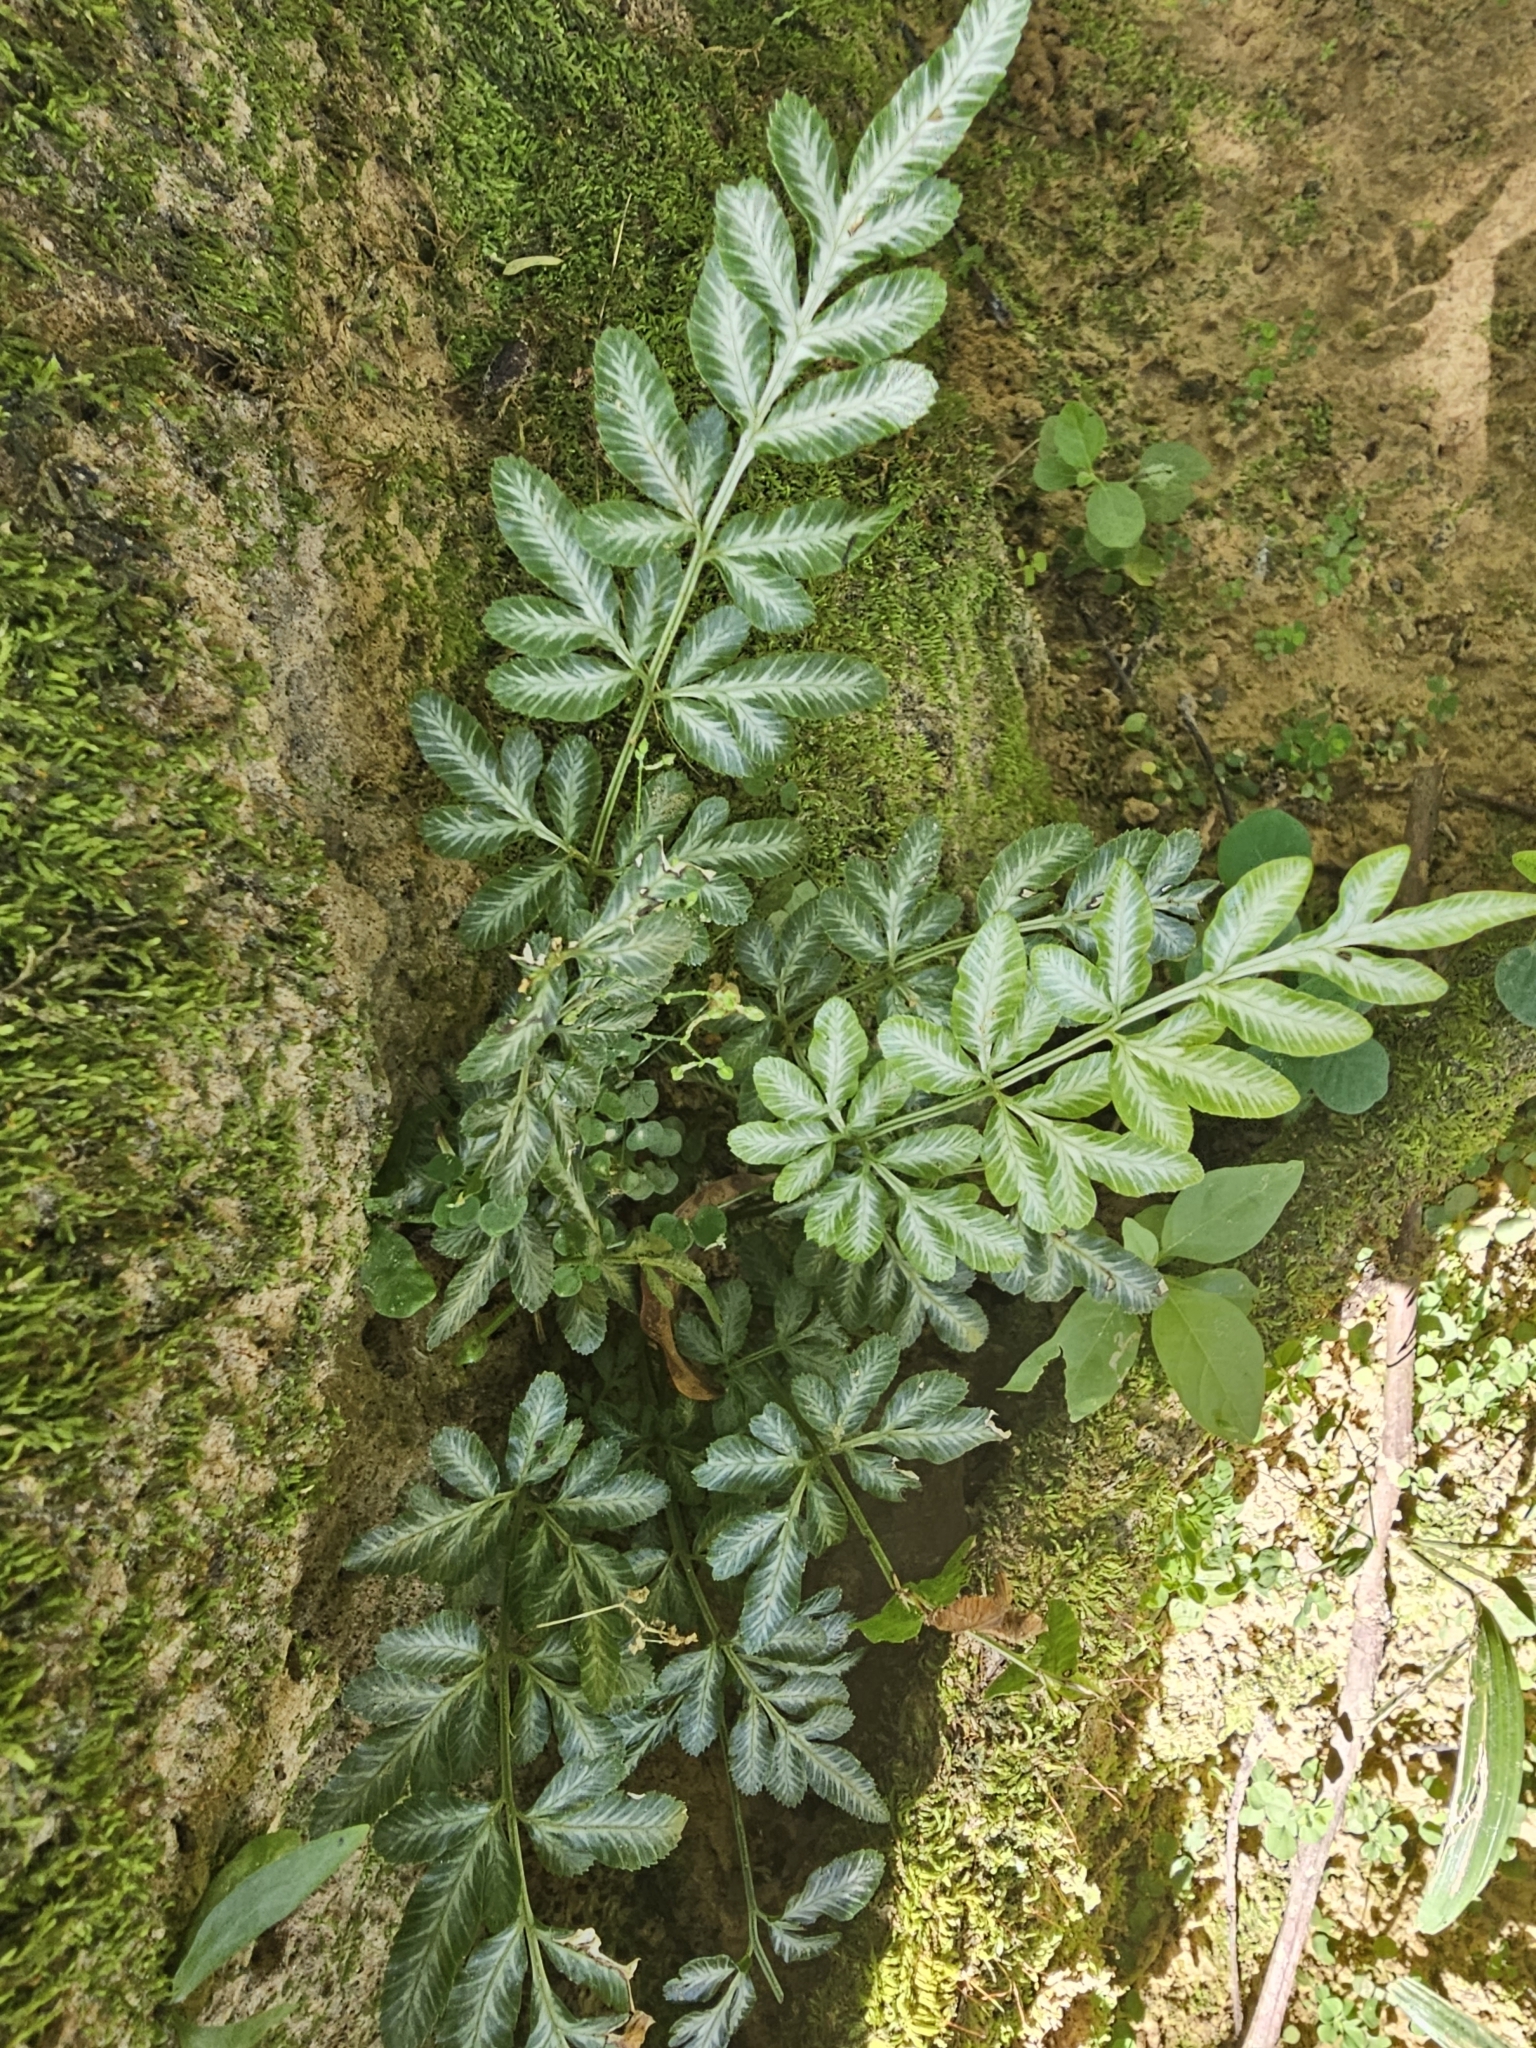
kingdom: Plantae
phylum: Tracheophyta
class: Polypodiopsida
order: Polypodiales
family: Pteridaceae
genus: Pteris
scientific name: Pteris ensiformis
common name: Sword brake
